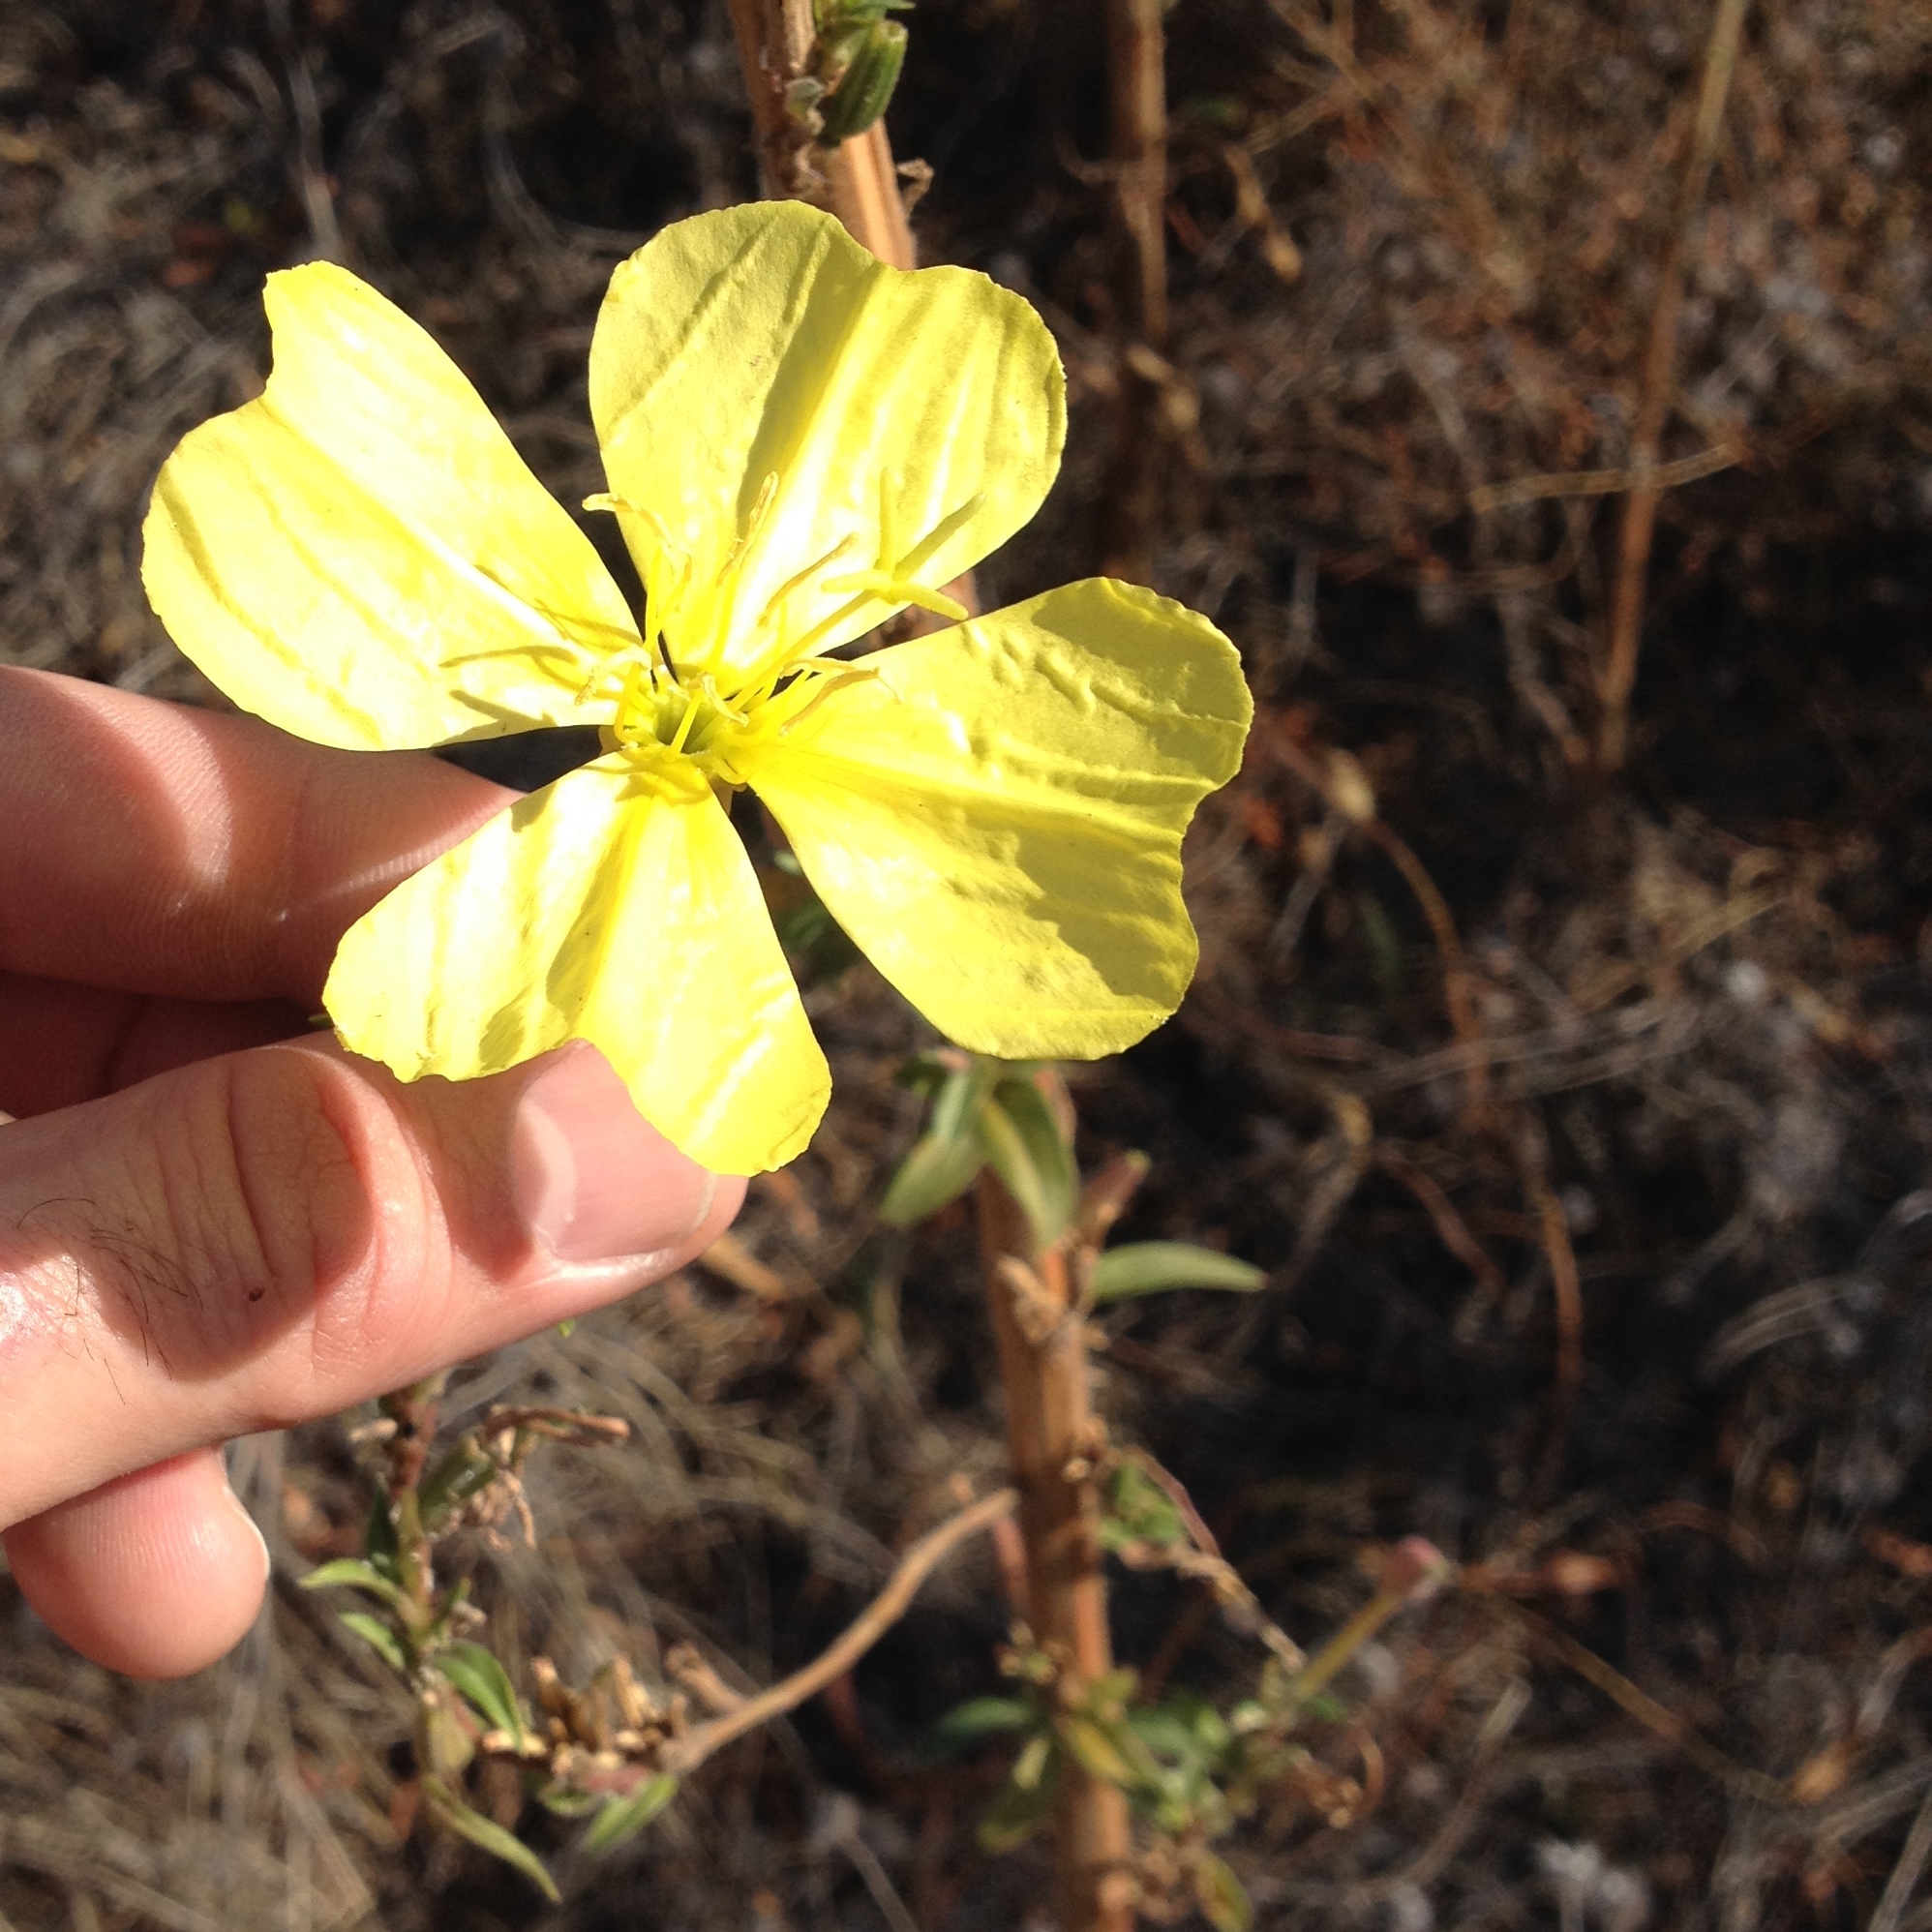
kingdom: Plantae
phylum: Tracheophyta
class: Magnoliopsida
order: Myrtales
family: Onagraceae
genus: Oenothera
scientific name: Oenothera elata
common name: Hooker's evening-primrose
